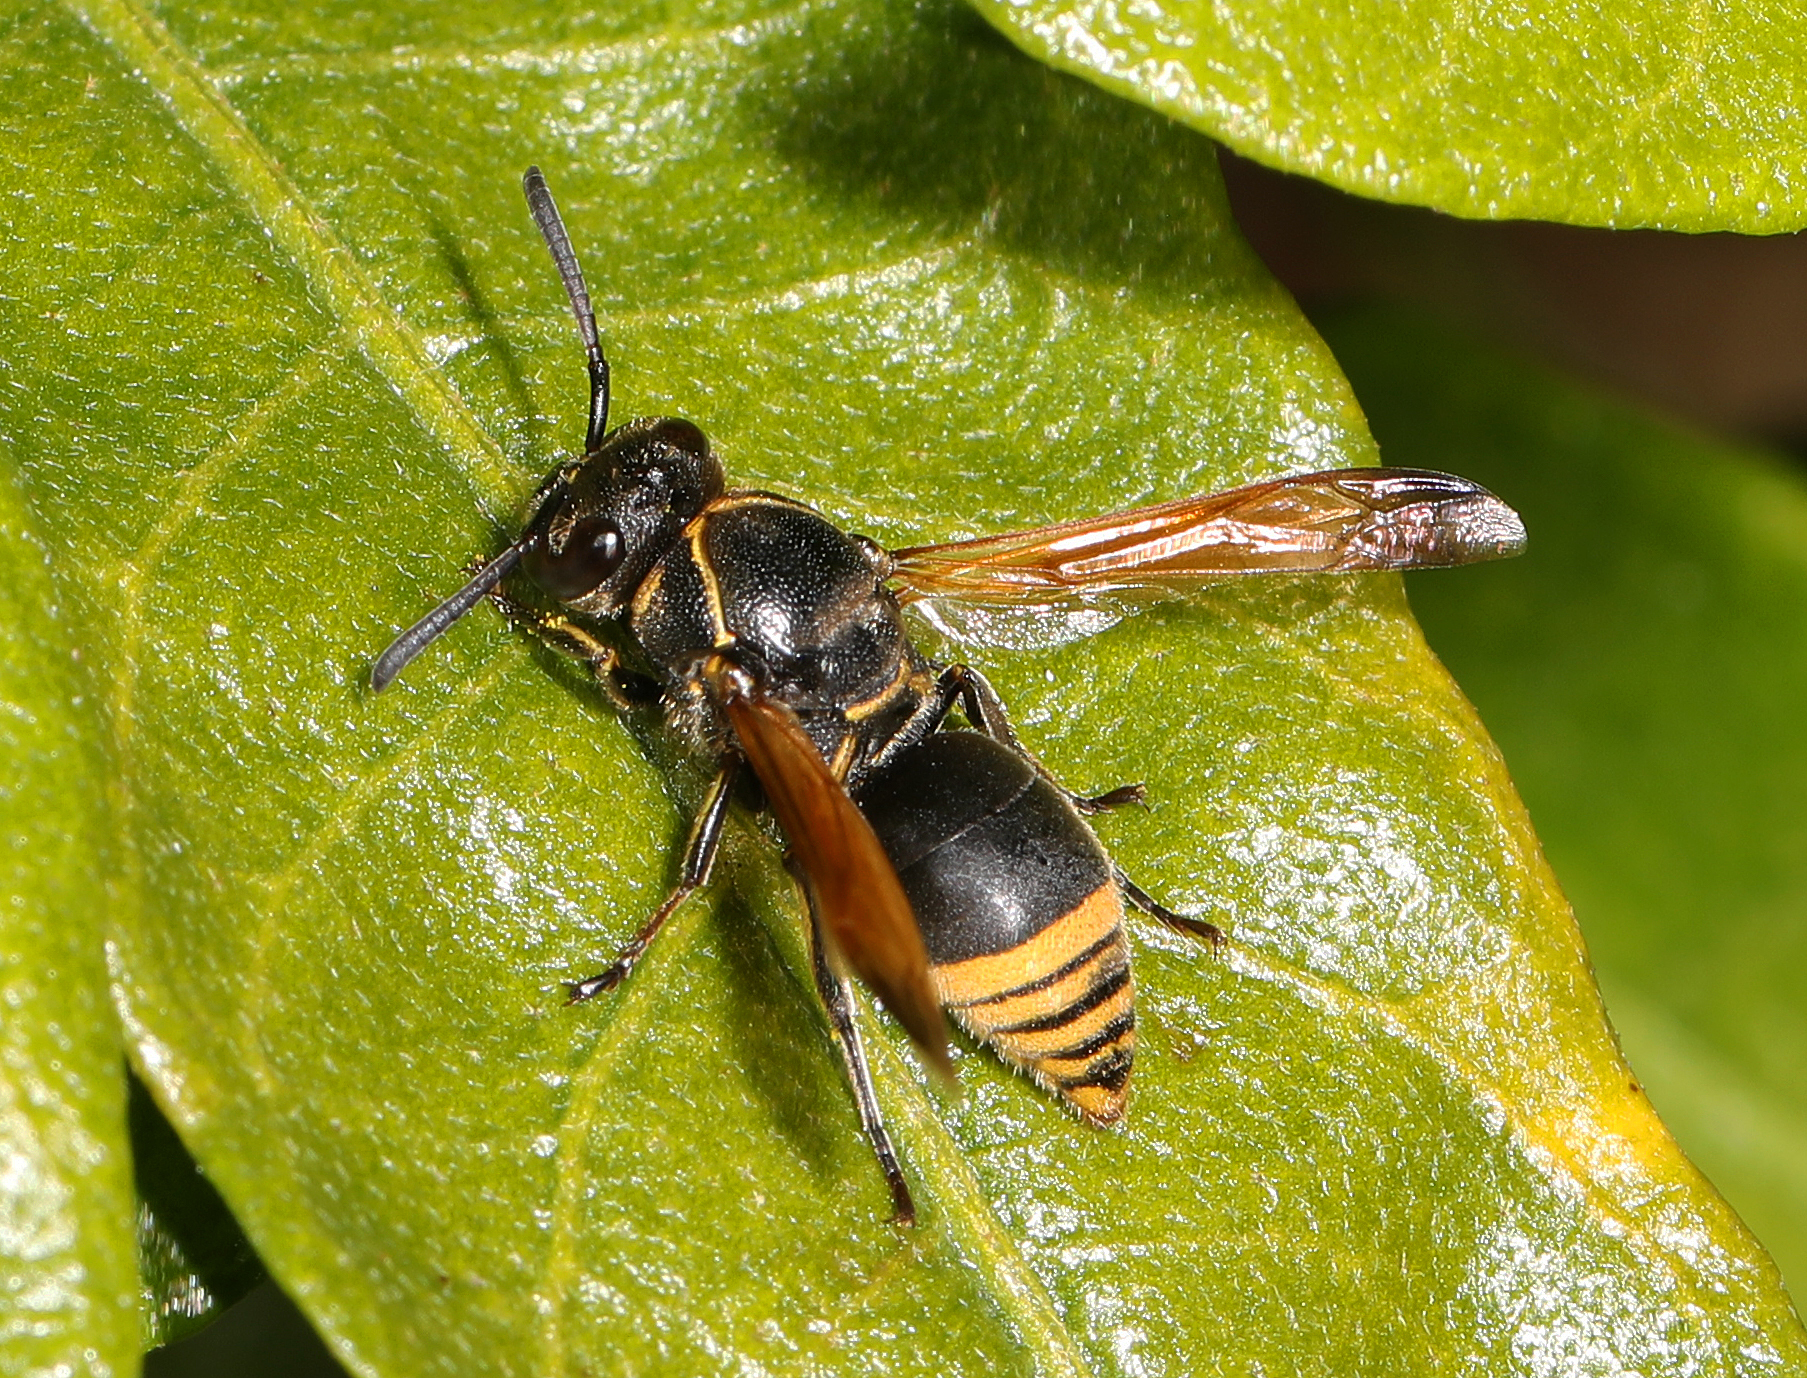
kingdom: Animalia
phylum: Arthropoda
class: Insecta
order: Hymenoptera
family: Eumenidae
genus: Pachodynerus
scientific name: Pachodynerus nasidens
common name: Key hole wasp
